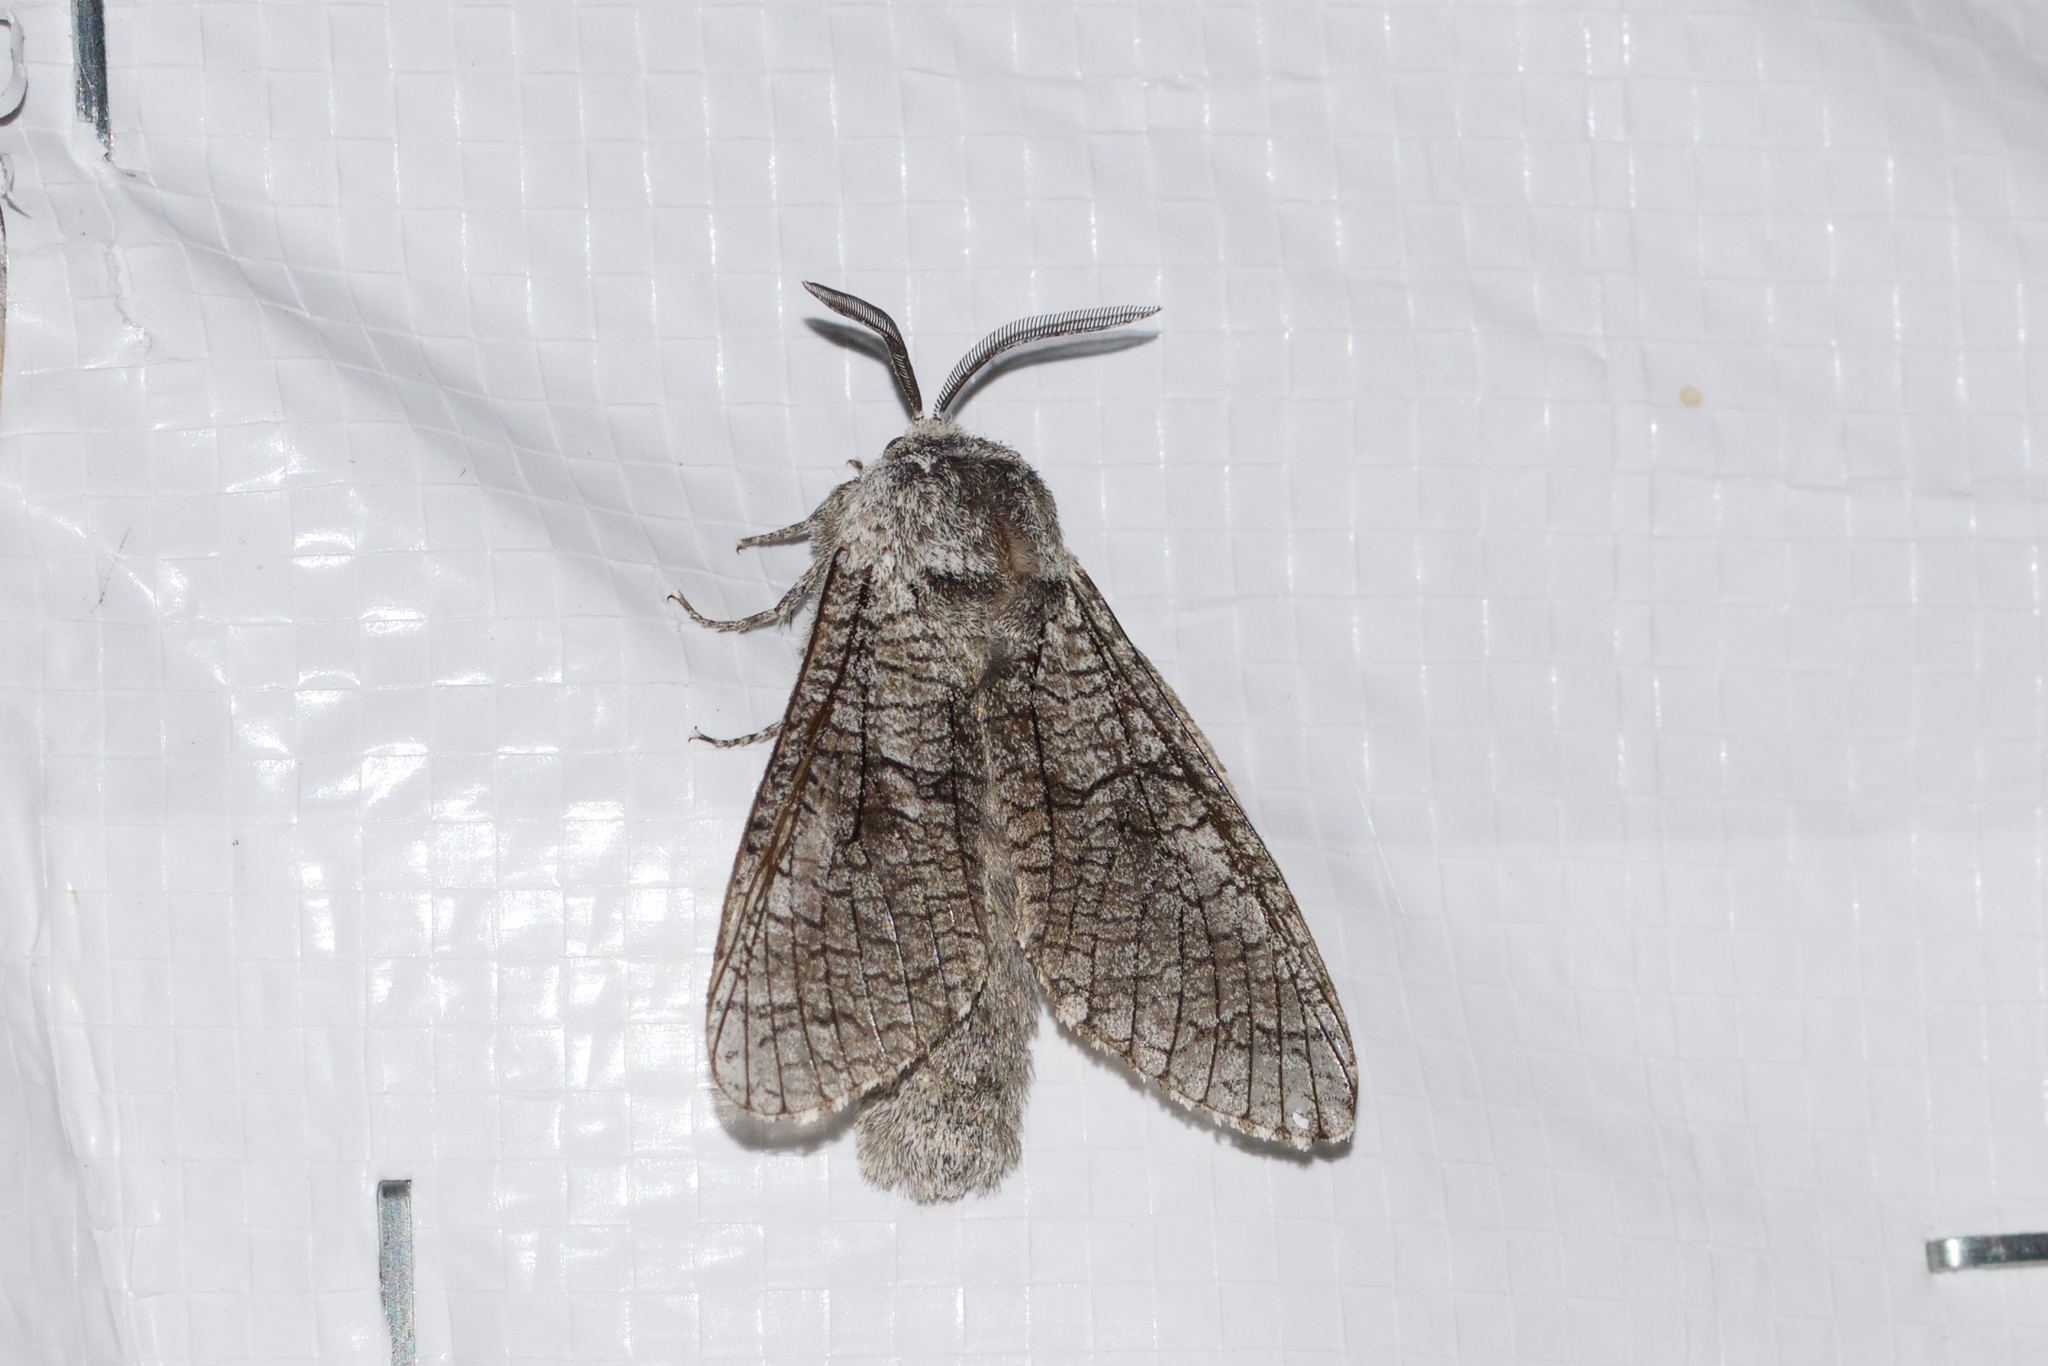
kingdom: Animalia
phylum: Arthropoda
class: Insecta
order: Lepidoptera
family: Cossidae
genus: Acossus
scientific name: Acossus populi
